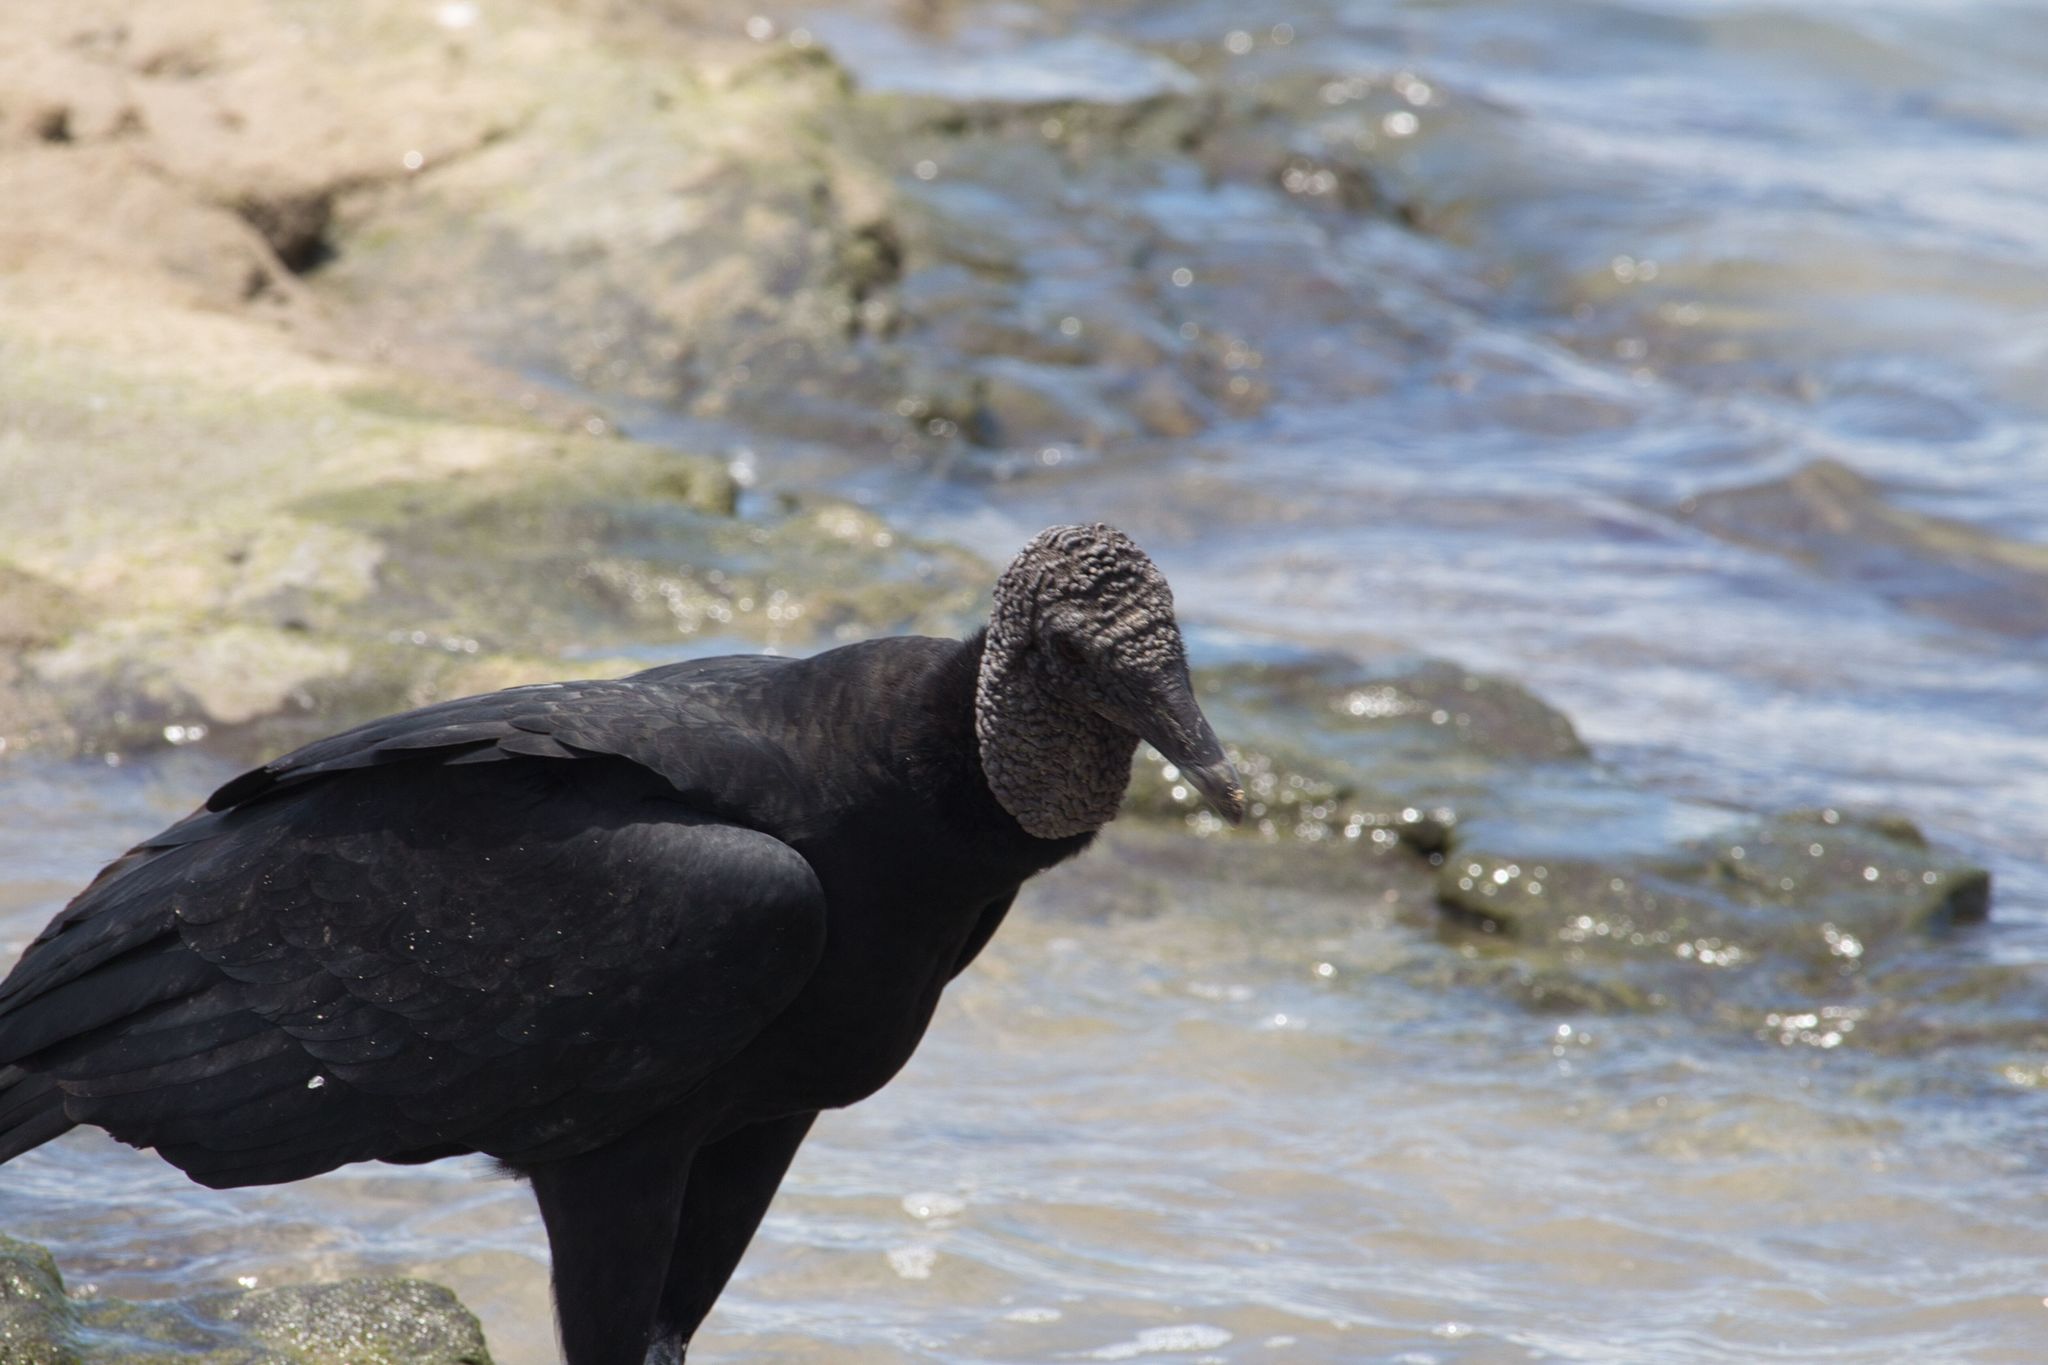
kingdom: Animalia
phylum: Chordata
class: Aves
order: Accipitriformes
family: Cathartidae
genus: Coragyps
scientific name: Coragyps atratus
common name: Black vulture
